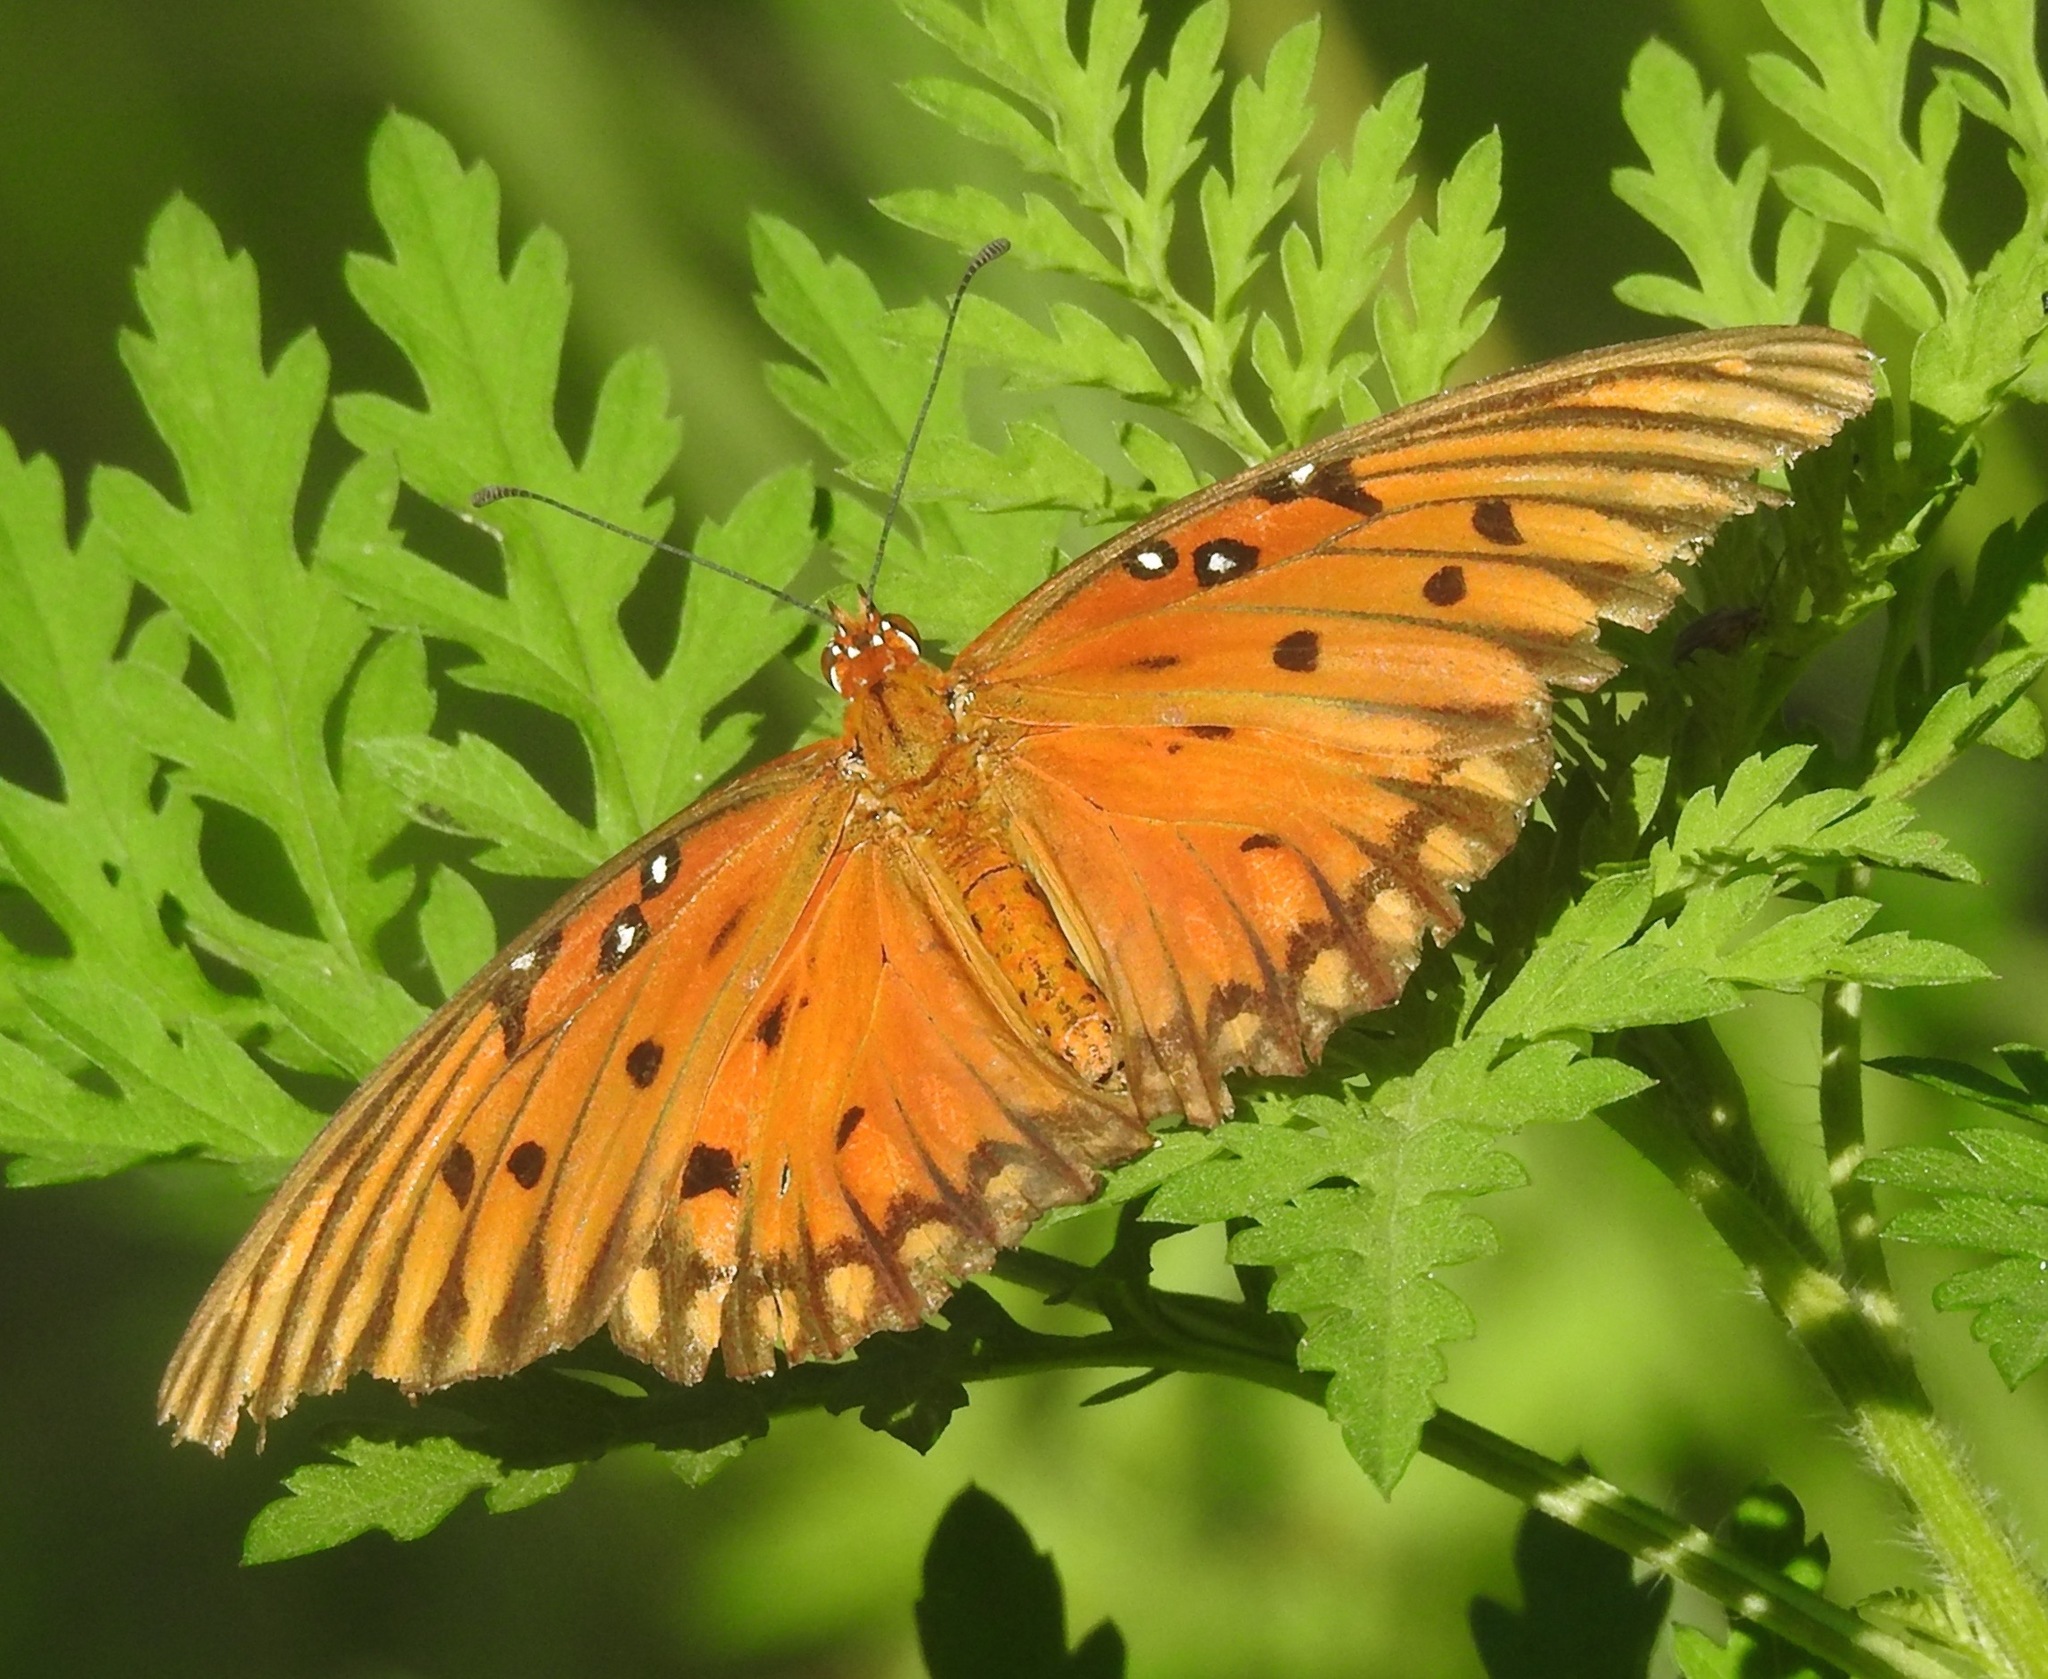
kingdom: Animalia
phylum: Arthropoda
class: Insecta
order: Lepidoptera
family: Nymphalidae
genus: Dione
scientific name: Dione vanillae
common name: Gulf fritillary
